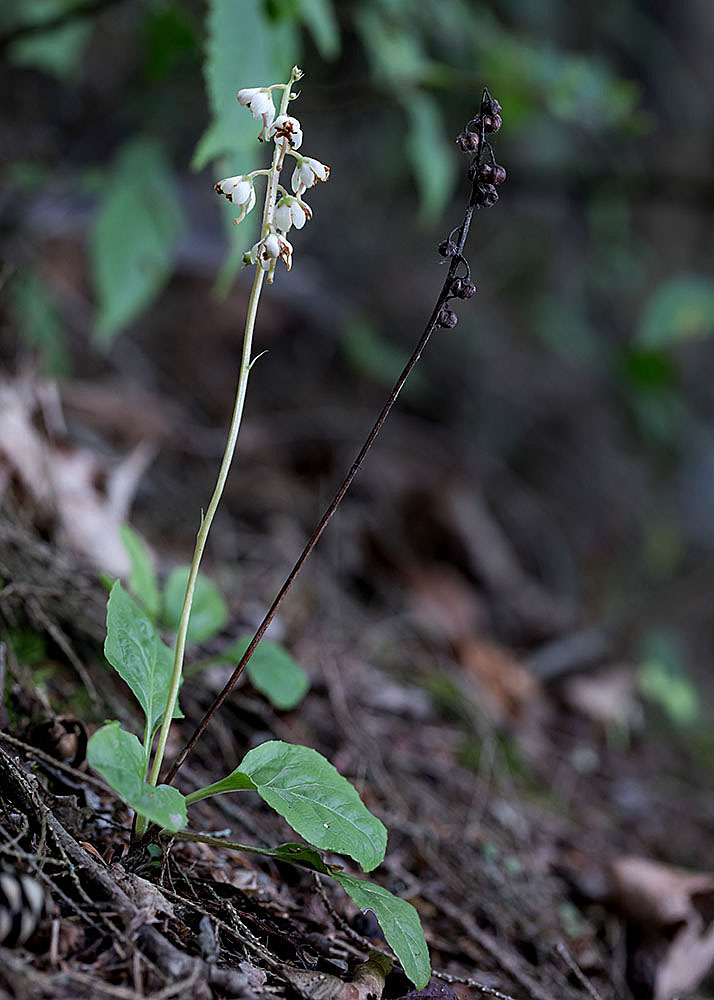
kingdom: Plantae
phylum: Tracheophyta
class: Magnoliopsida
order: Ericales
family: Ericaceae
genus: Pyrola
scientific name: Pyrola elliptica
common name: Shinleaf
